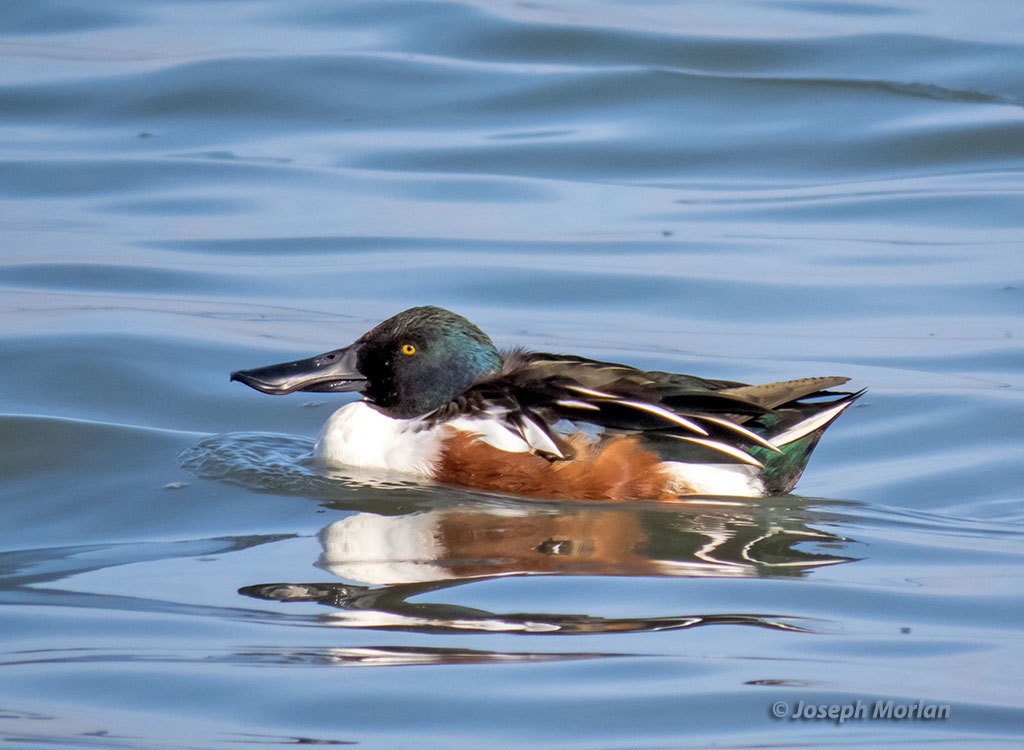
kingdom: Animalia
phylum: Chordata
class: Aves
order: Anseriformes
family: Anatidae
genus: Spatula
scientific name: Spatula clypeata
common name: Northern shoveler
